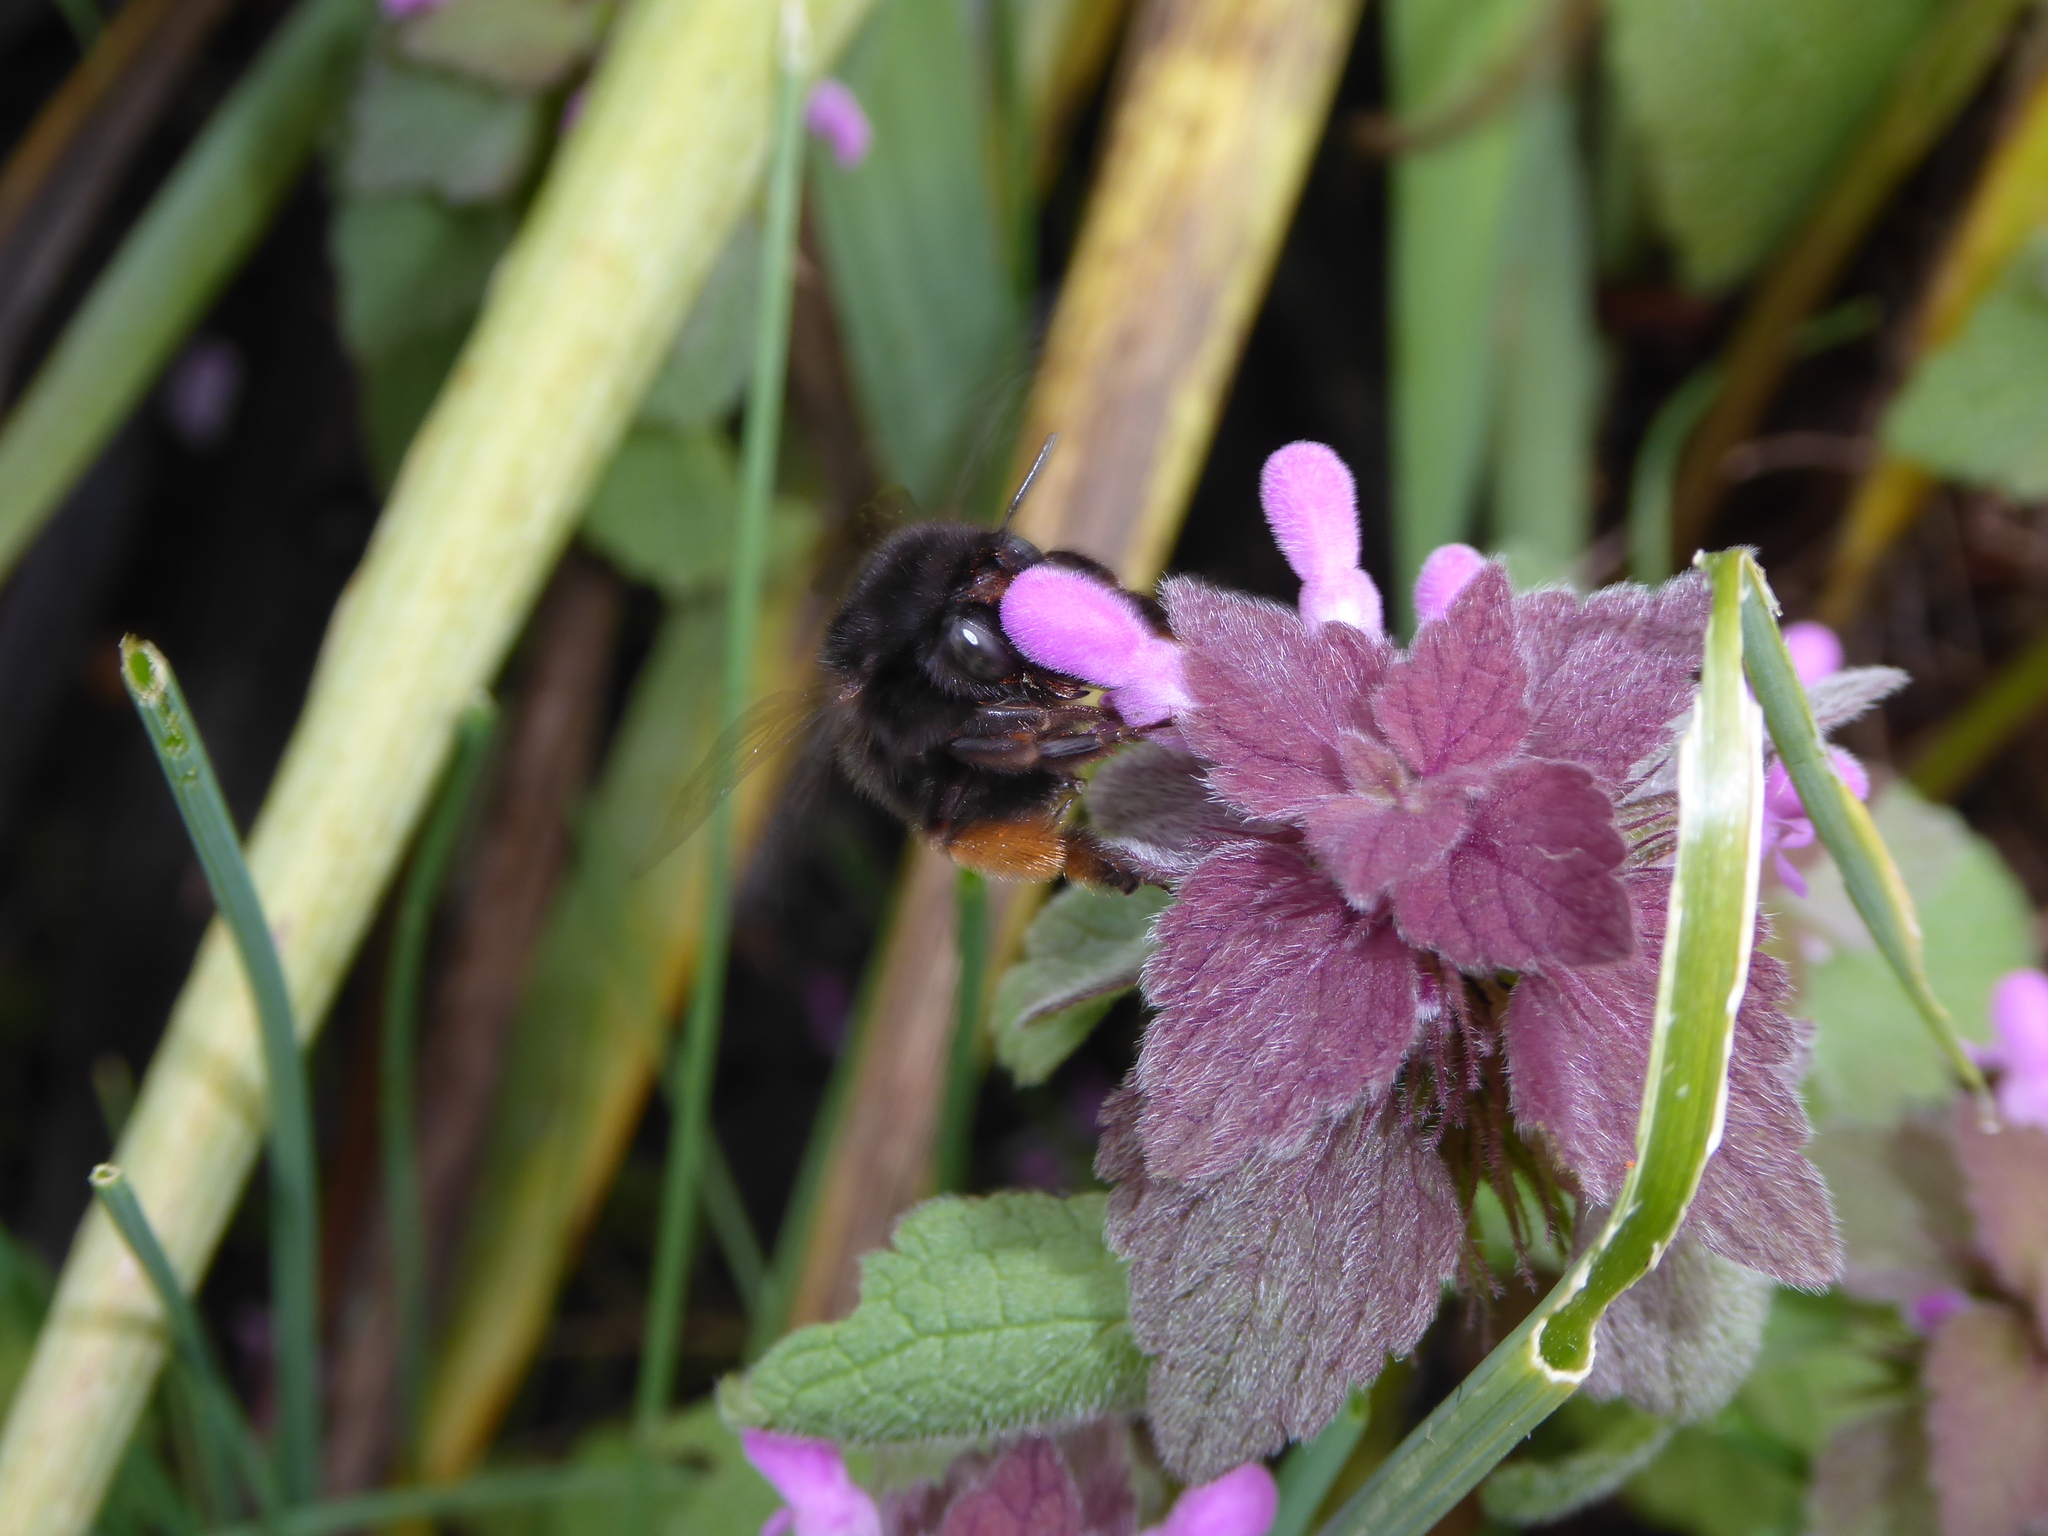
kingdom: Animalia
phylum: Arthropoda
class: Insecta
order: Hymenoptera
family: Apidae
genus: Anthophora
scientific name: Anthophora plumipes
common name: Hairy-footed flower bee
